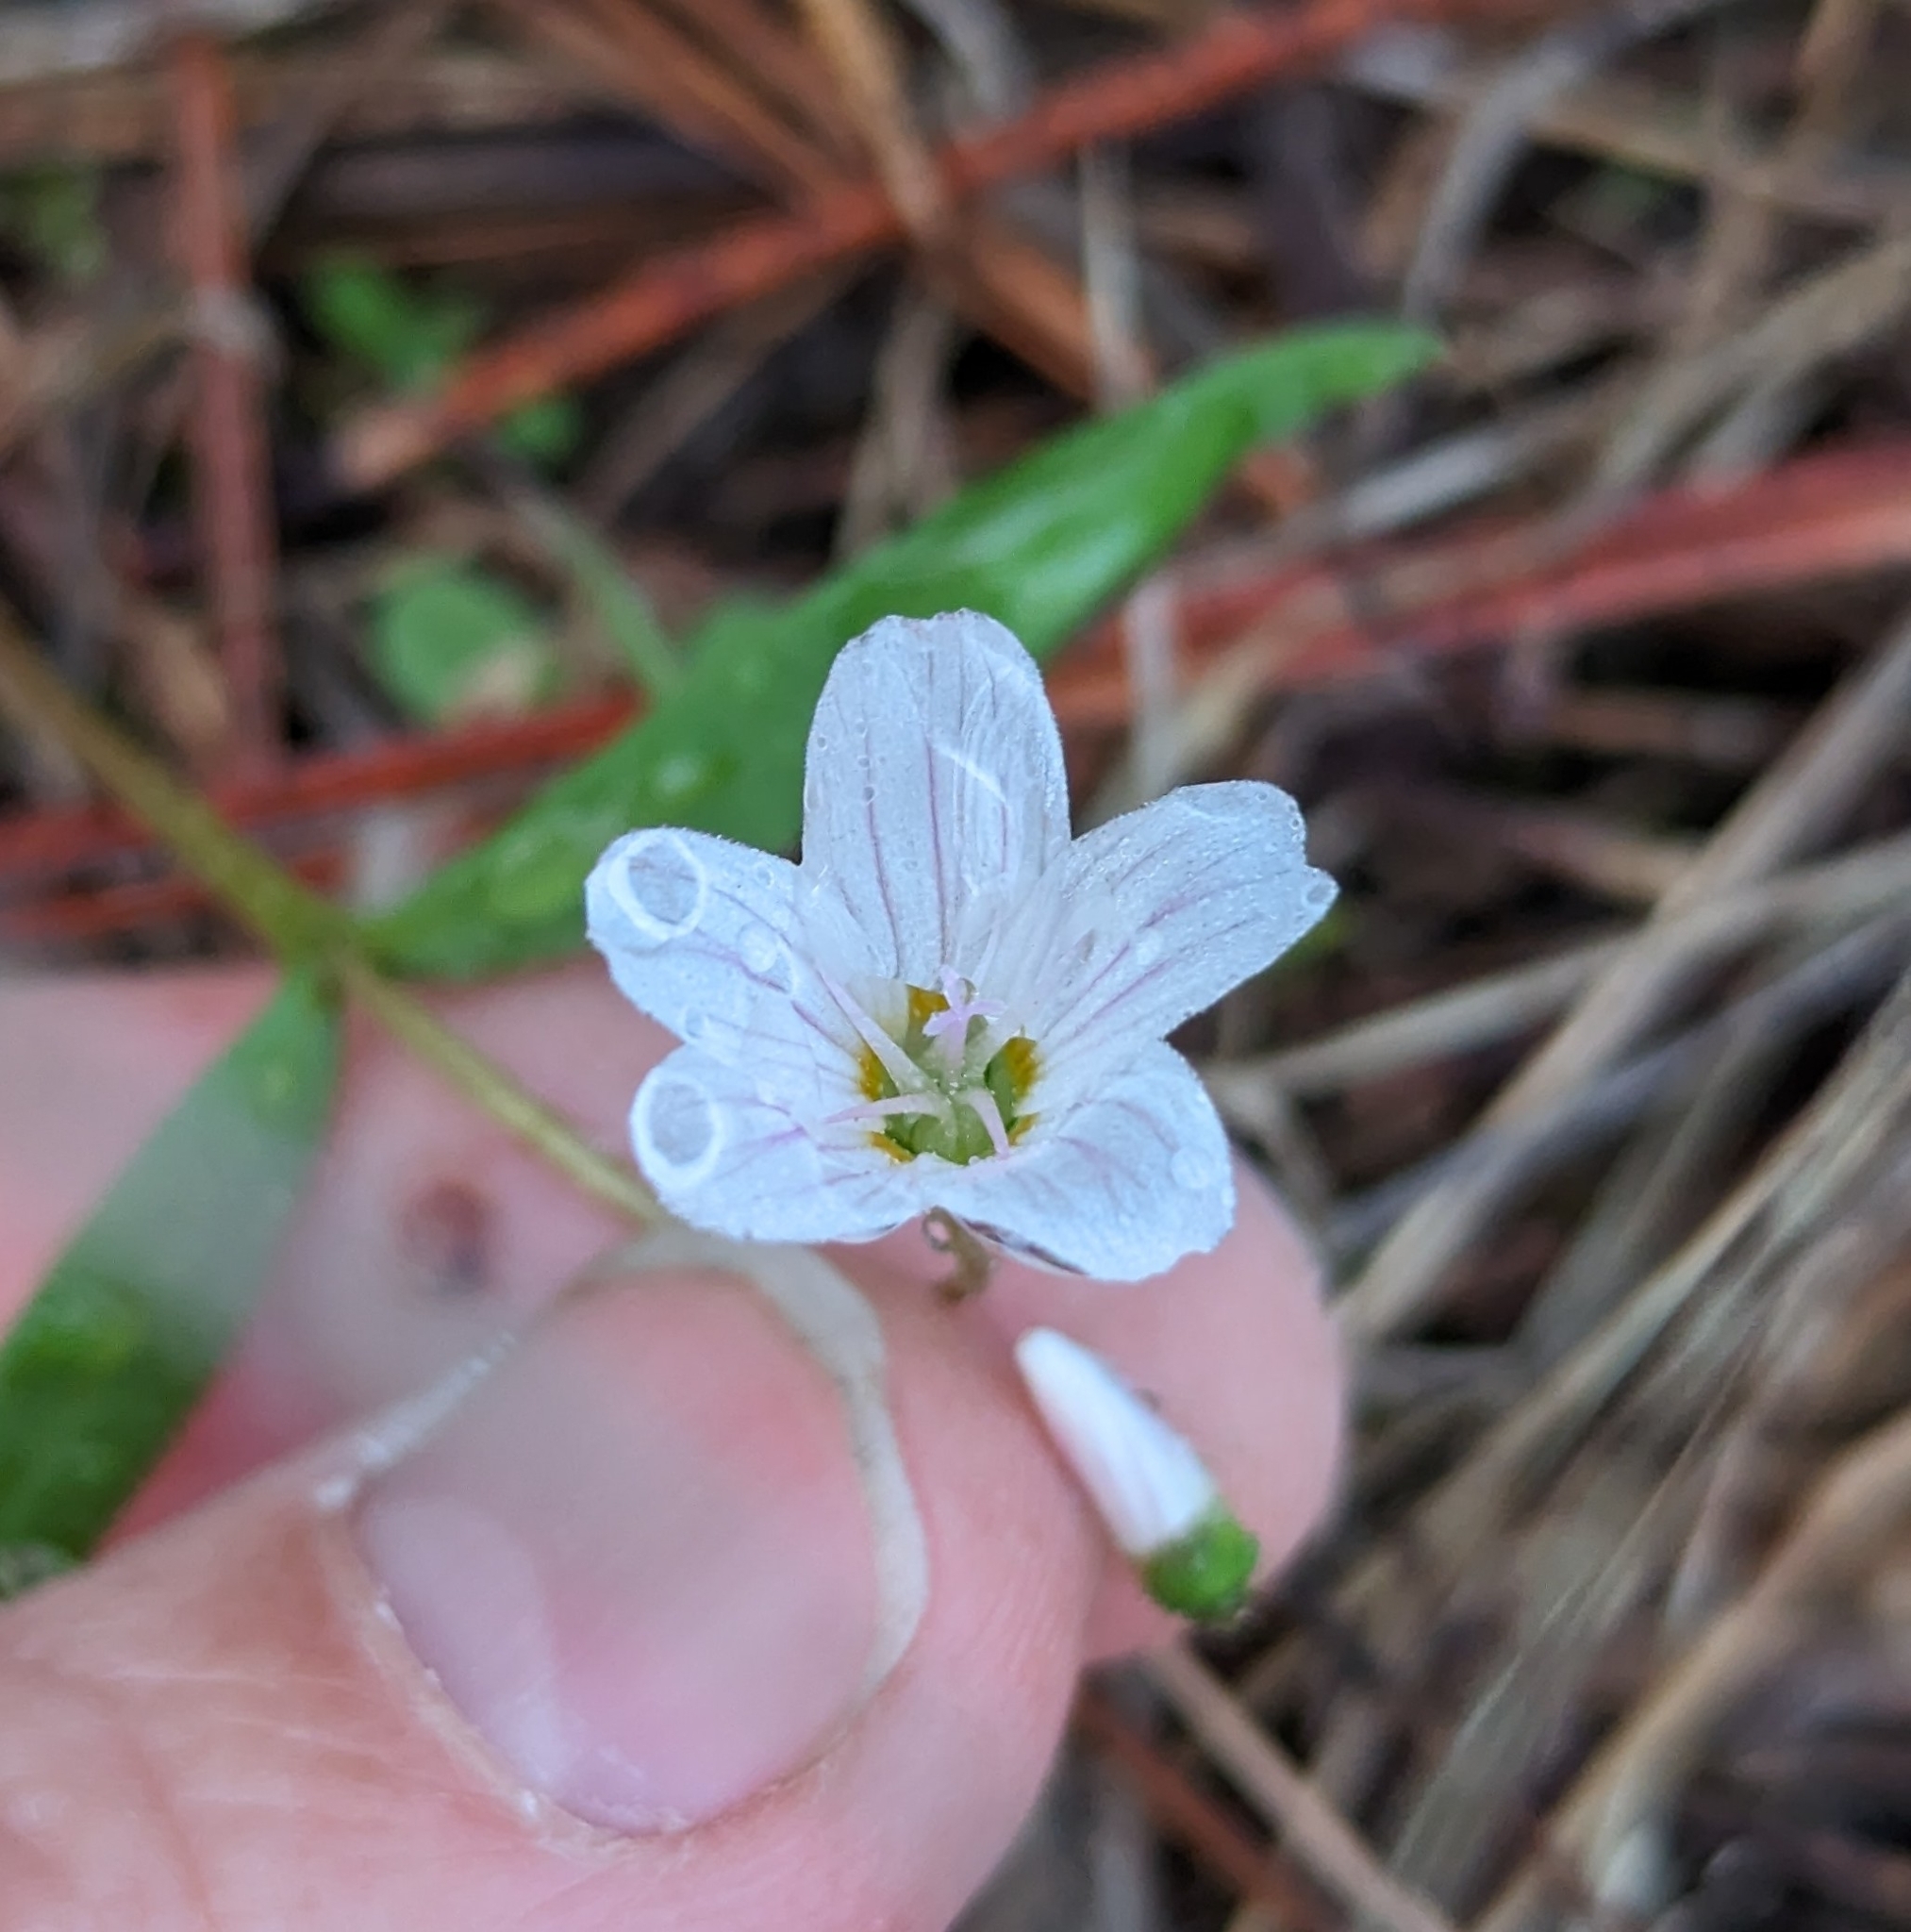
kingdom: Plantae
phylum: Tracheophyta
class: Magnoliopsida
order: Caryophyllales
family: Montiaceae
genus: Claytonia
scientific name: Claytonia lanceolata
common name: Western spring-beauty
